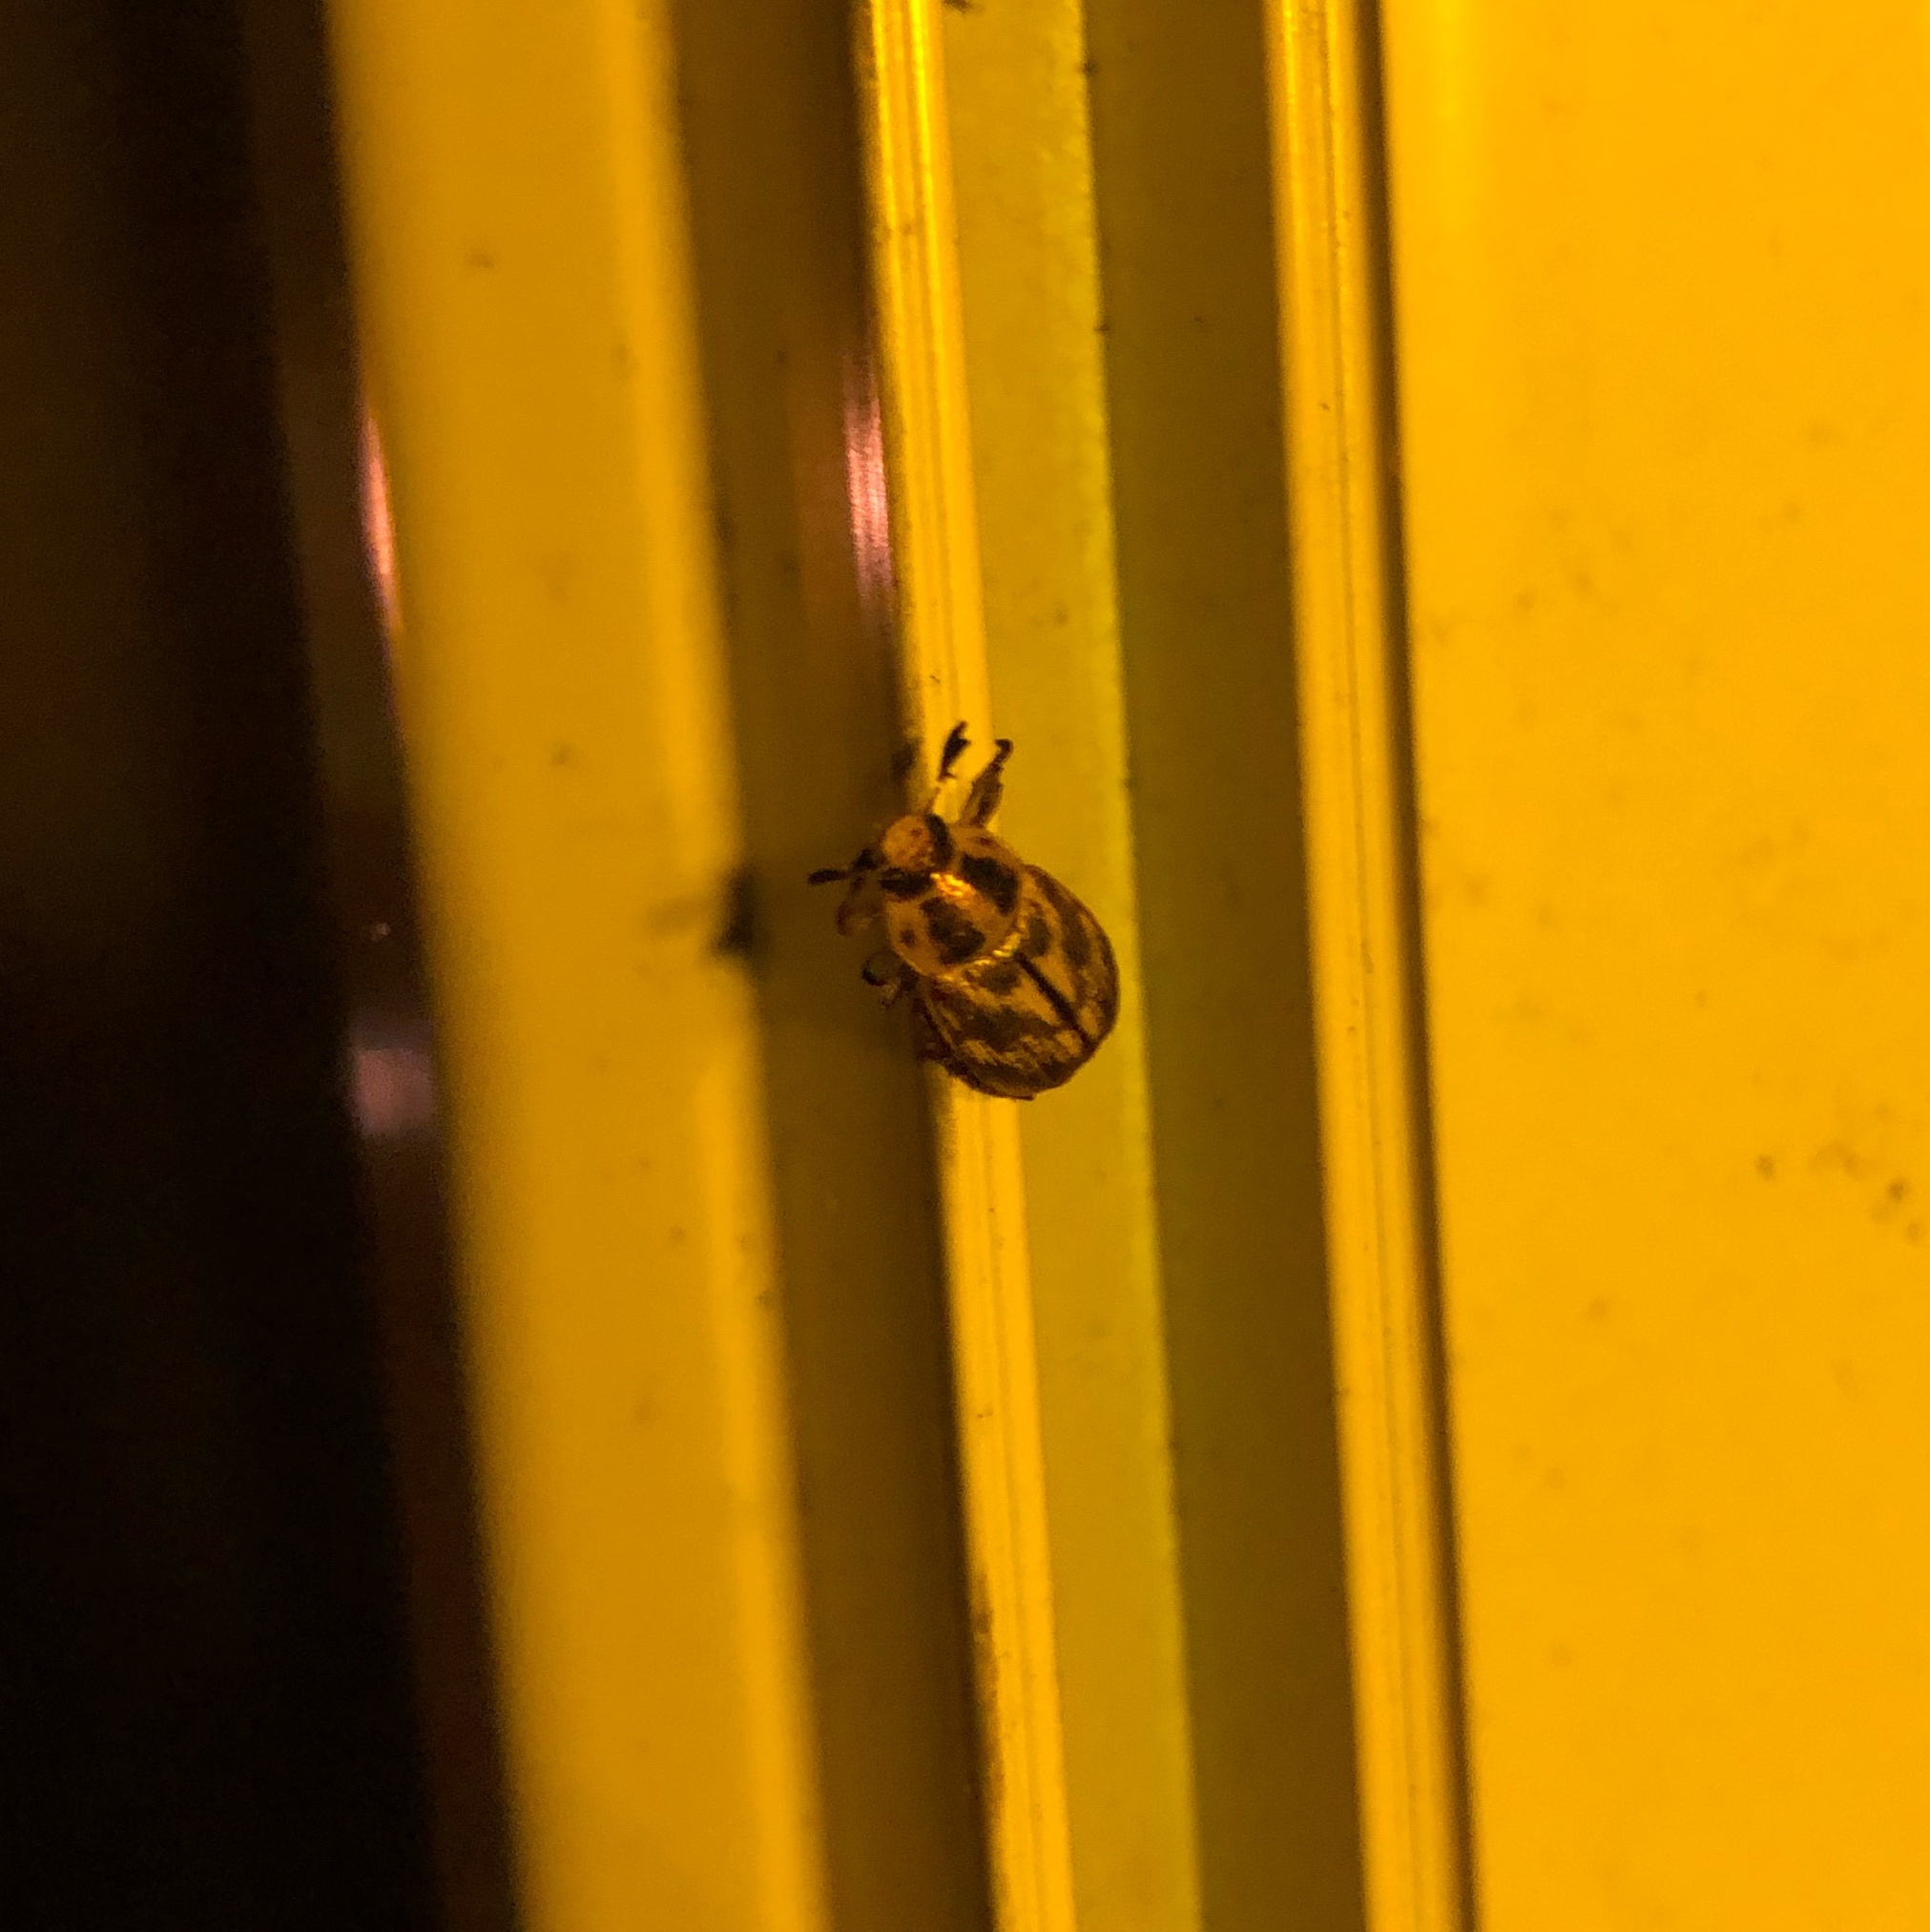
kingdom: Animalia
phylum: Arthropoda
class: Insecta
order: Coleoptera
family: Scarabaeidae
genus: Exomala
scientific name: Exomala orientalis
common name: Oriental beetle
